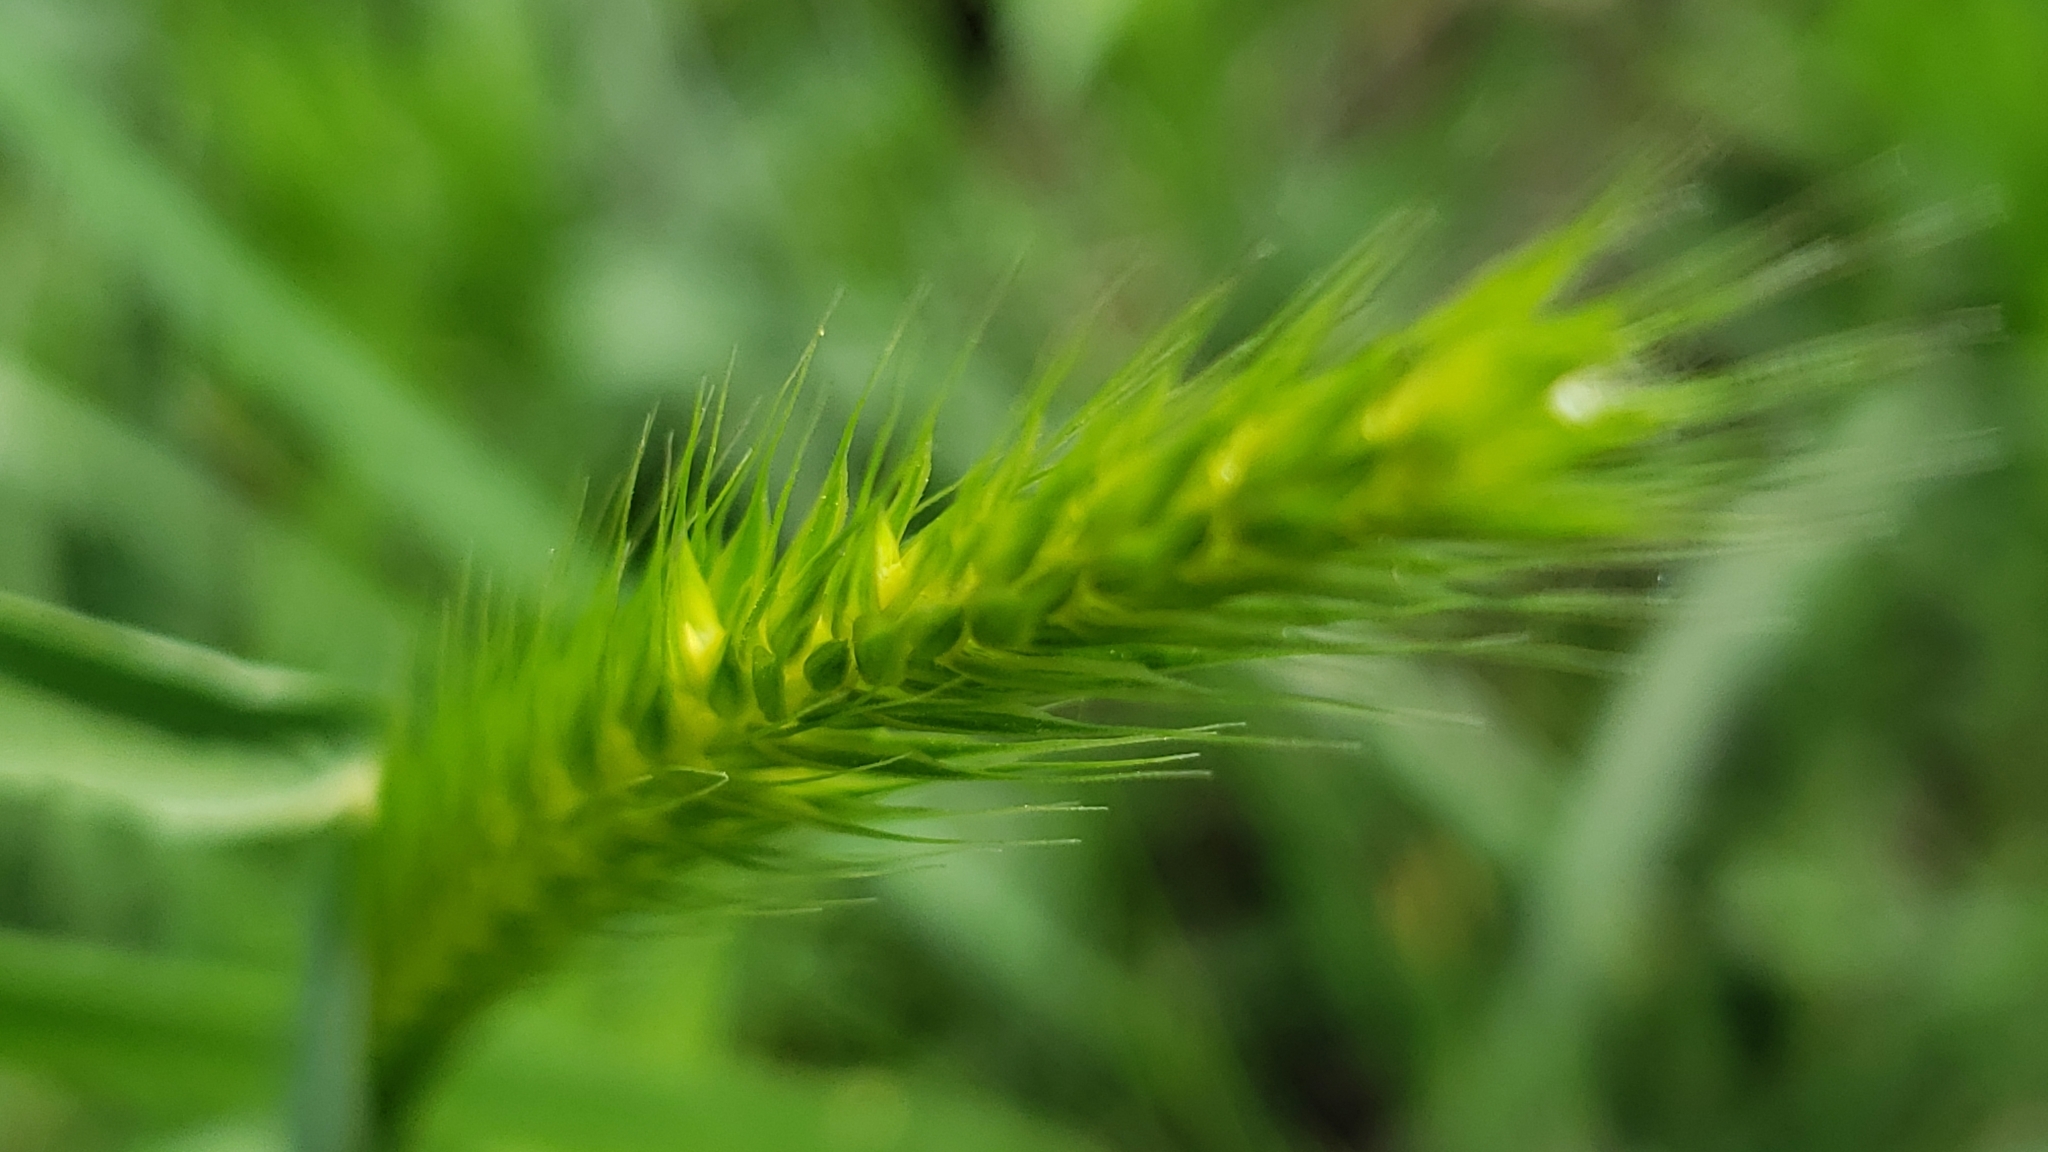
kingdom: Plantae
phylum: Tracheophyta
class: Liliopsida
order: Poales
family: Poaceae
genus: Hordeum
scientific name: Hordeum pusillum
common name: Little barley
